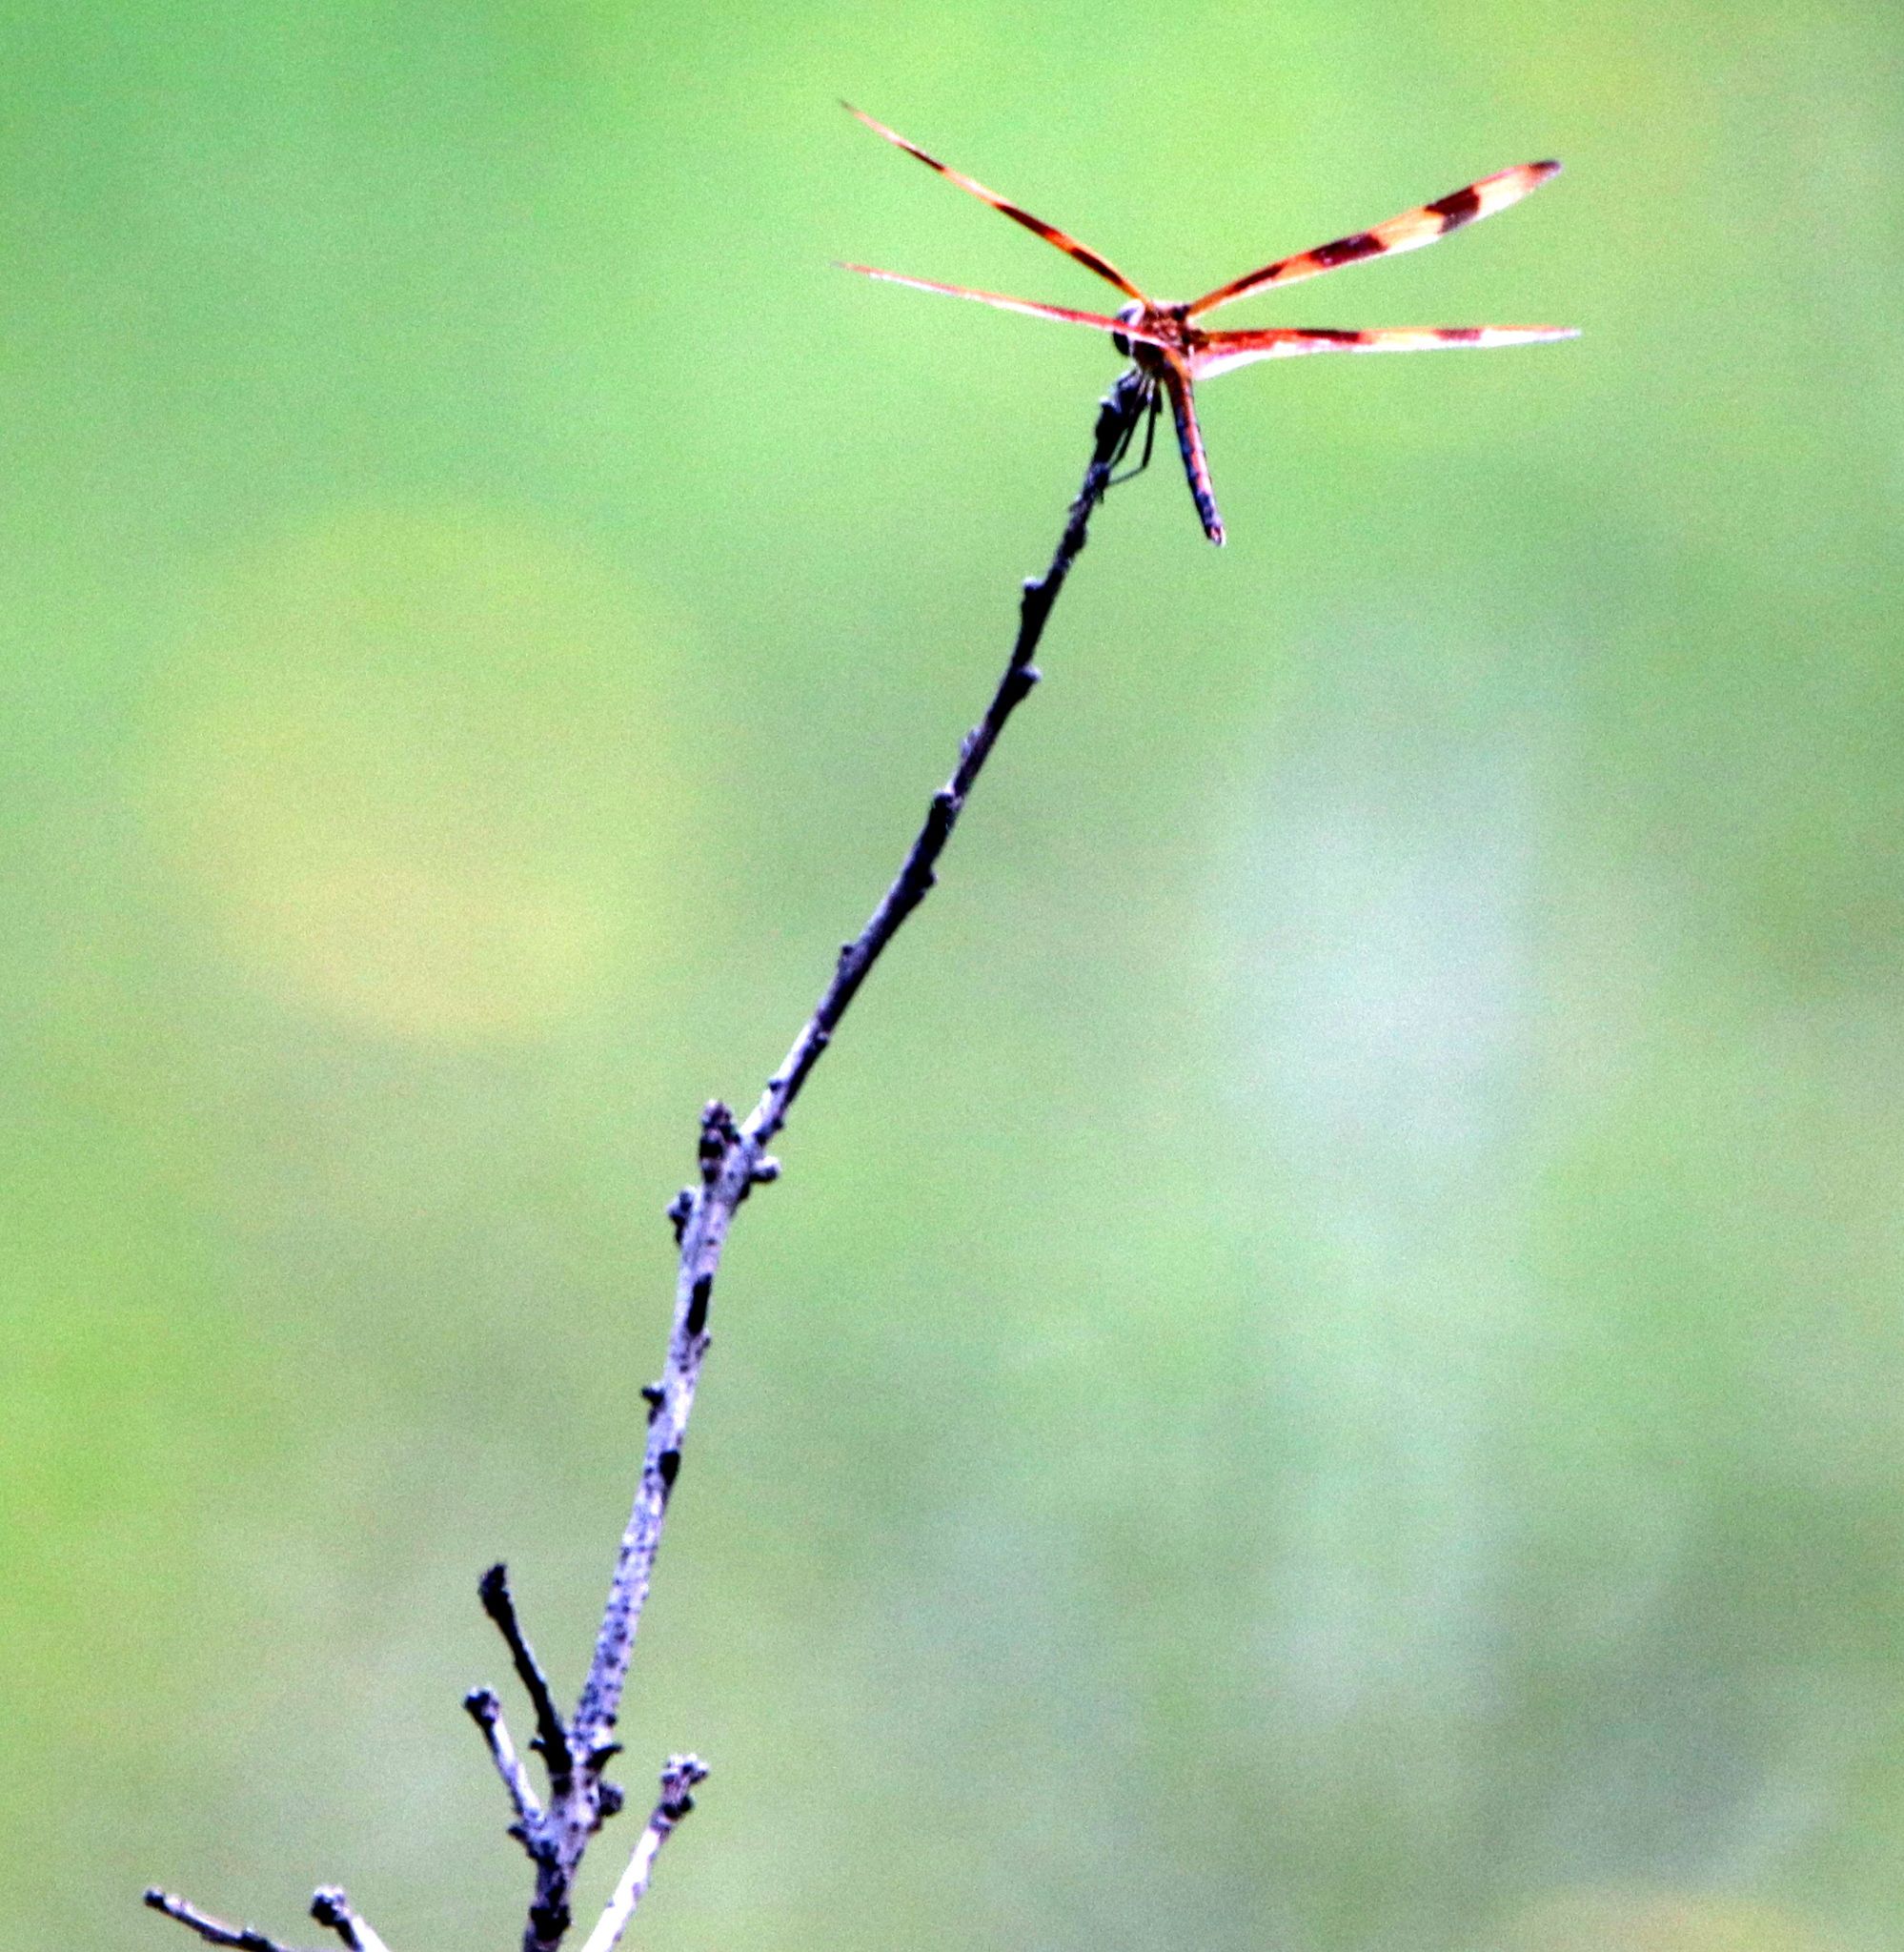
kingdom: Animalia
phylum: Arthropoda
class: Insecta
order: Odonata
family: Libellulidae
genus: Celithemis
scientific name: Celithemis eponina
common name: Halloween pennant
